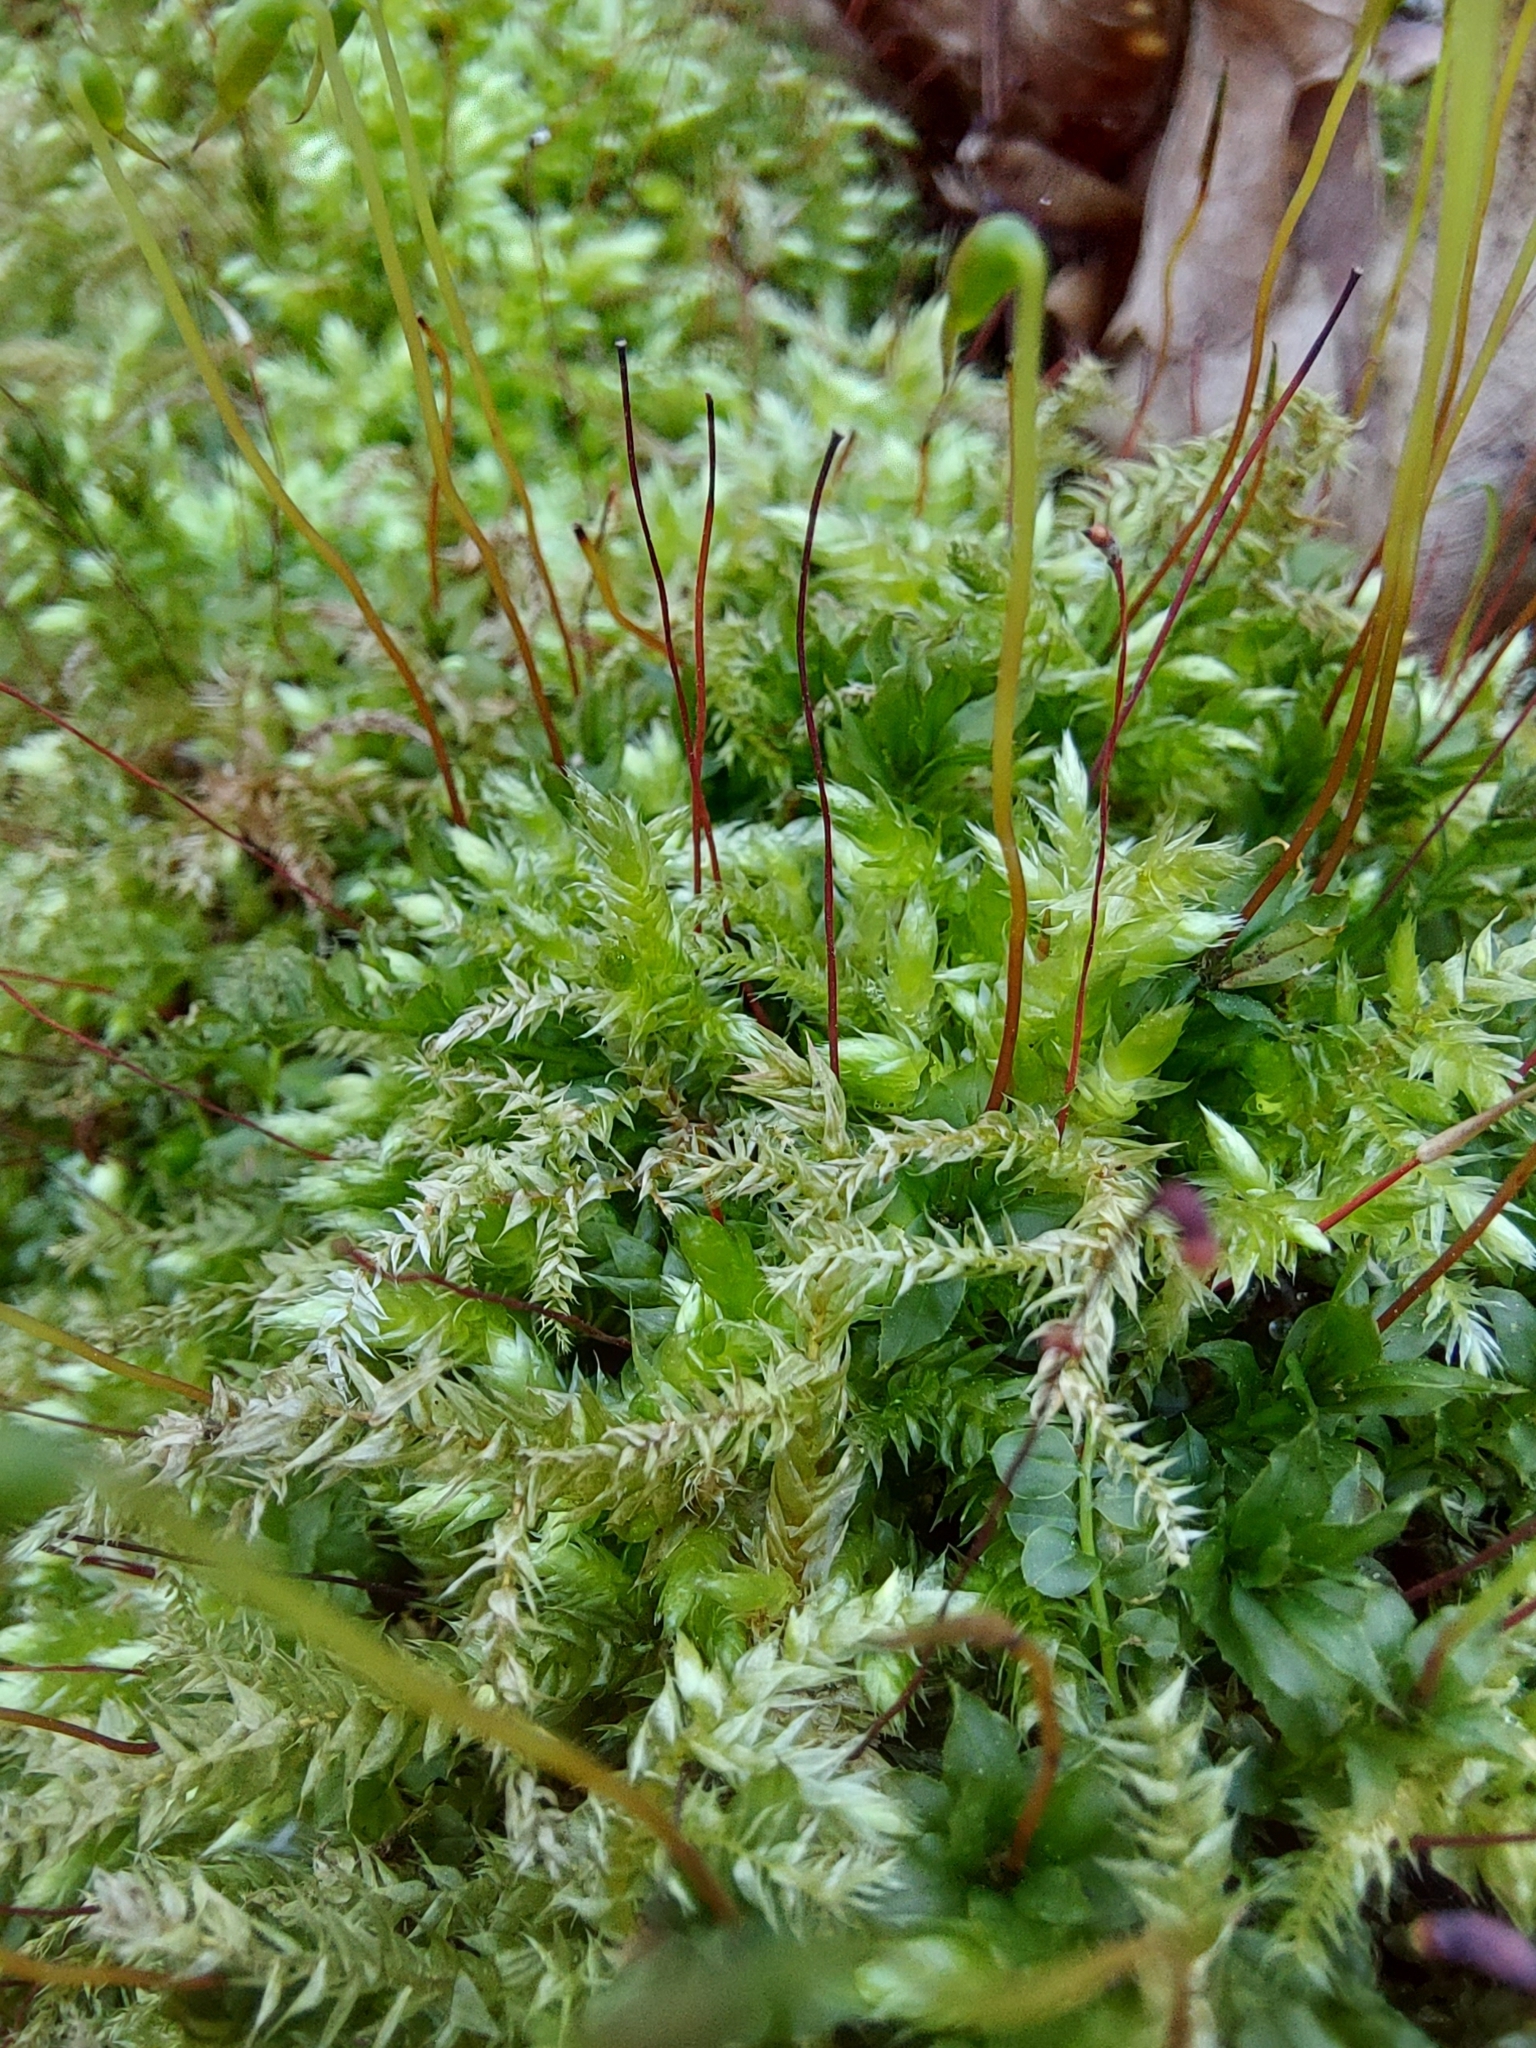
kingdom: Plantae
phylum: Bryophyta
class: Bryopsida
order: Hypnales
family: Brachytheciaceae
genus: Brachythecium
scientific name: Brachythecium rutabulum
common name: Rough-stalked feather-moss
